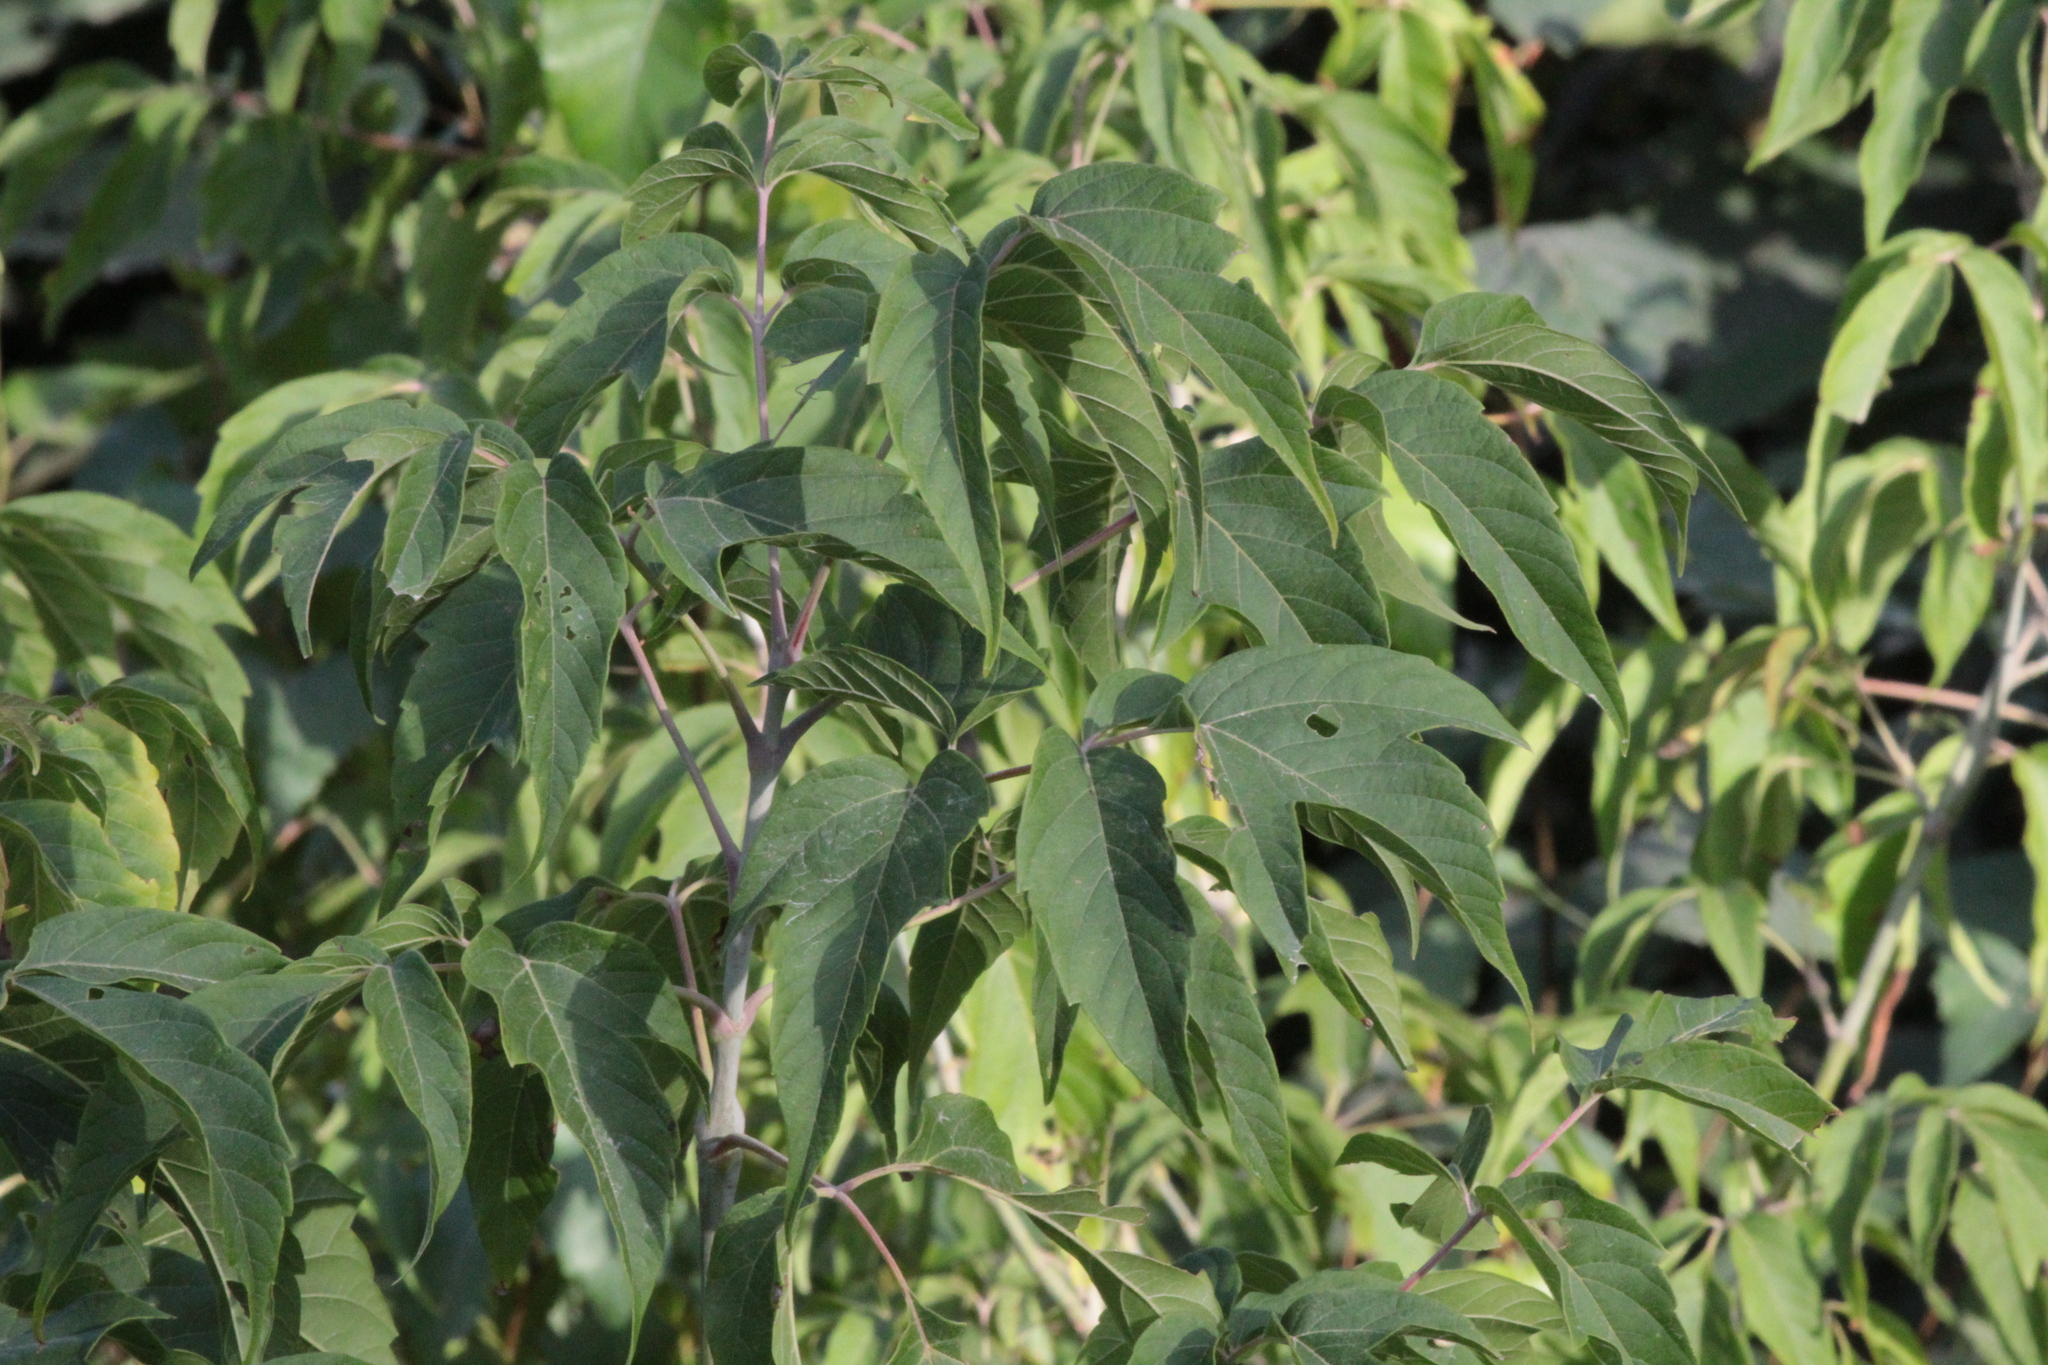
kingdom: Plantae
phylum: Tracheophyta
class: Magnoliopsida
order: Sapindales
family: Sapindaceae
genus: Acer
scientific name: Acer negundo
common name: Ashleaf maple
